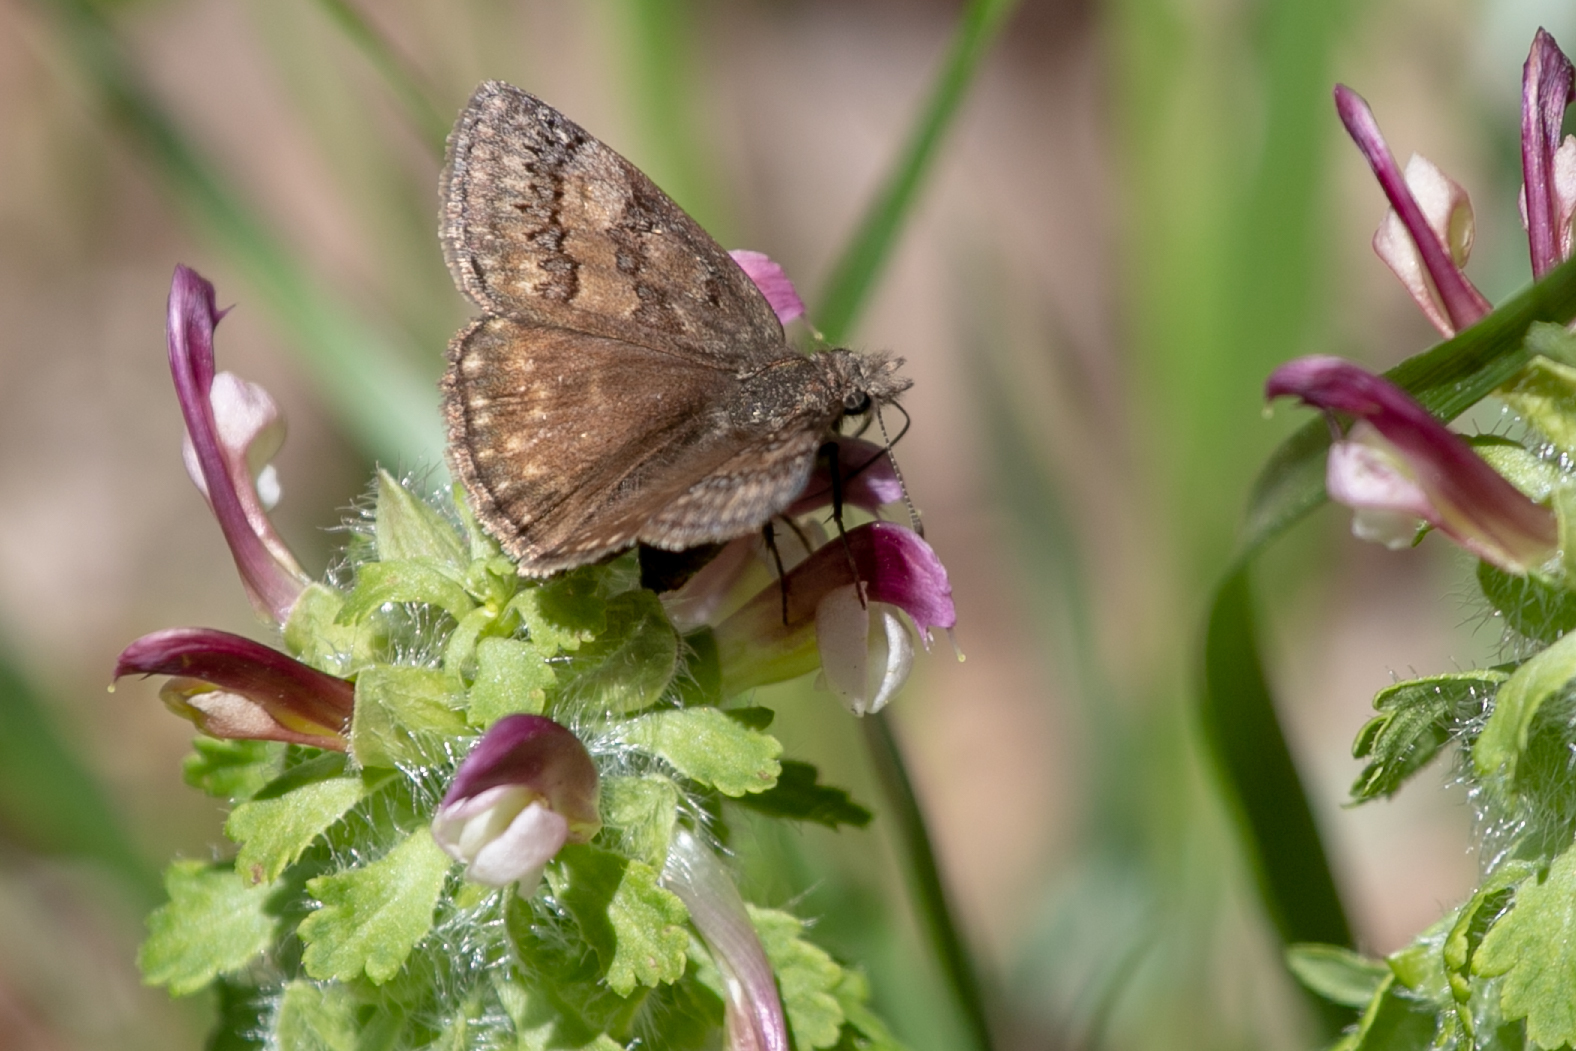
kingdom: Animalia
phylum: Arthropoda
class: Insecta
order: Lepidoptera
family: Hesperiidae
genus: Erynnis
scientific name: Erynnis icelus
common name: Dreamy duskywing
